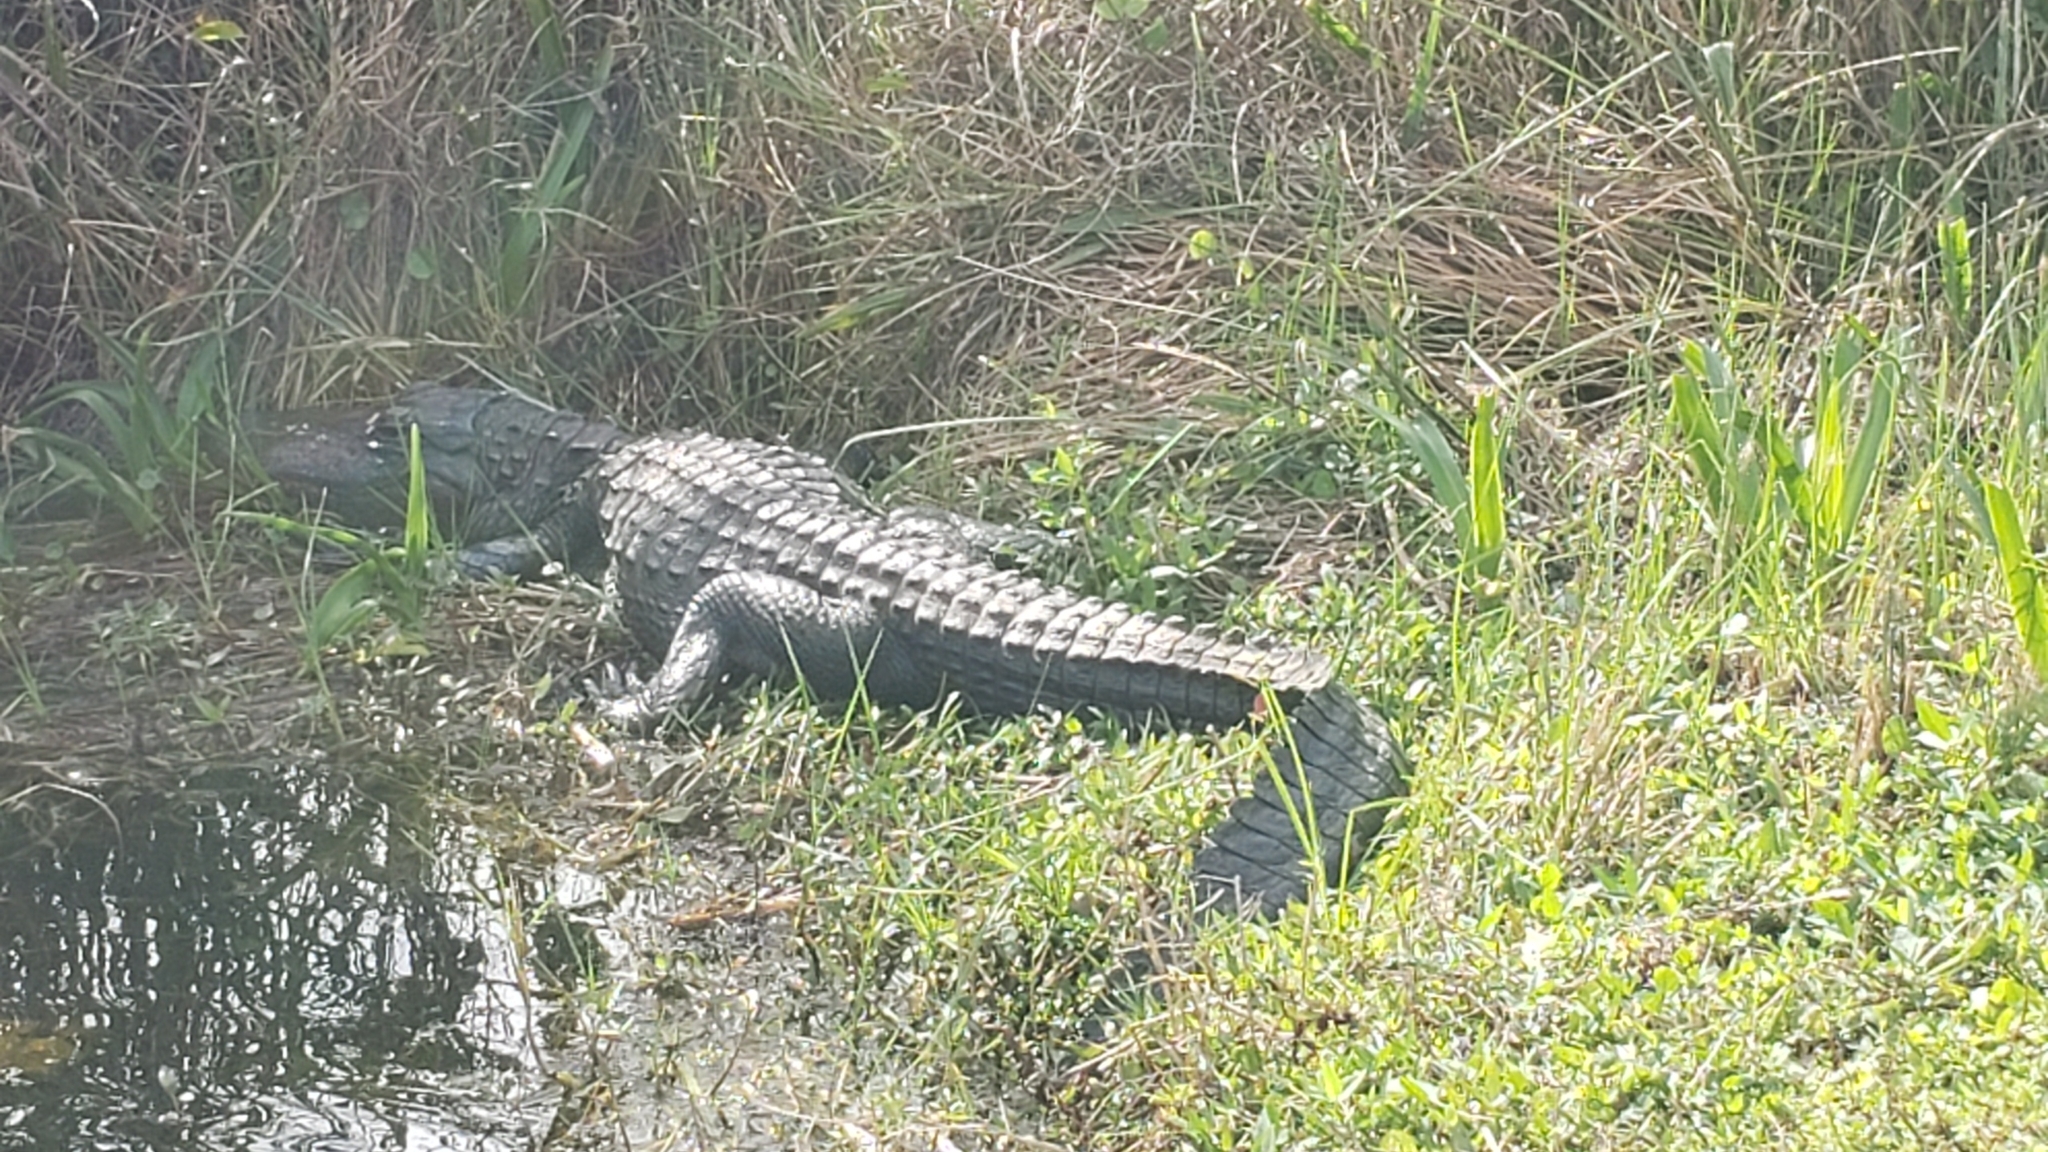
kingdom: Animalia
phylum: Chordata
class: Crocodylia
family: Alligatoridae
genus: Alligator
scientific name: Alligator mississippiensis
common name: American alligator
